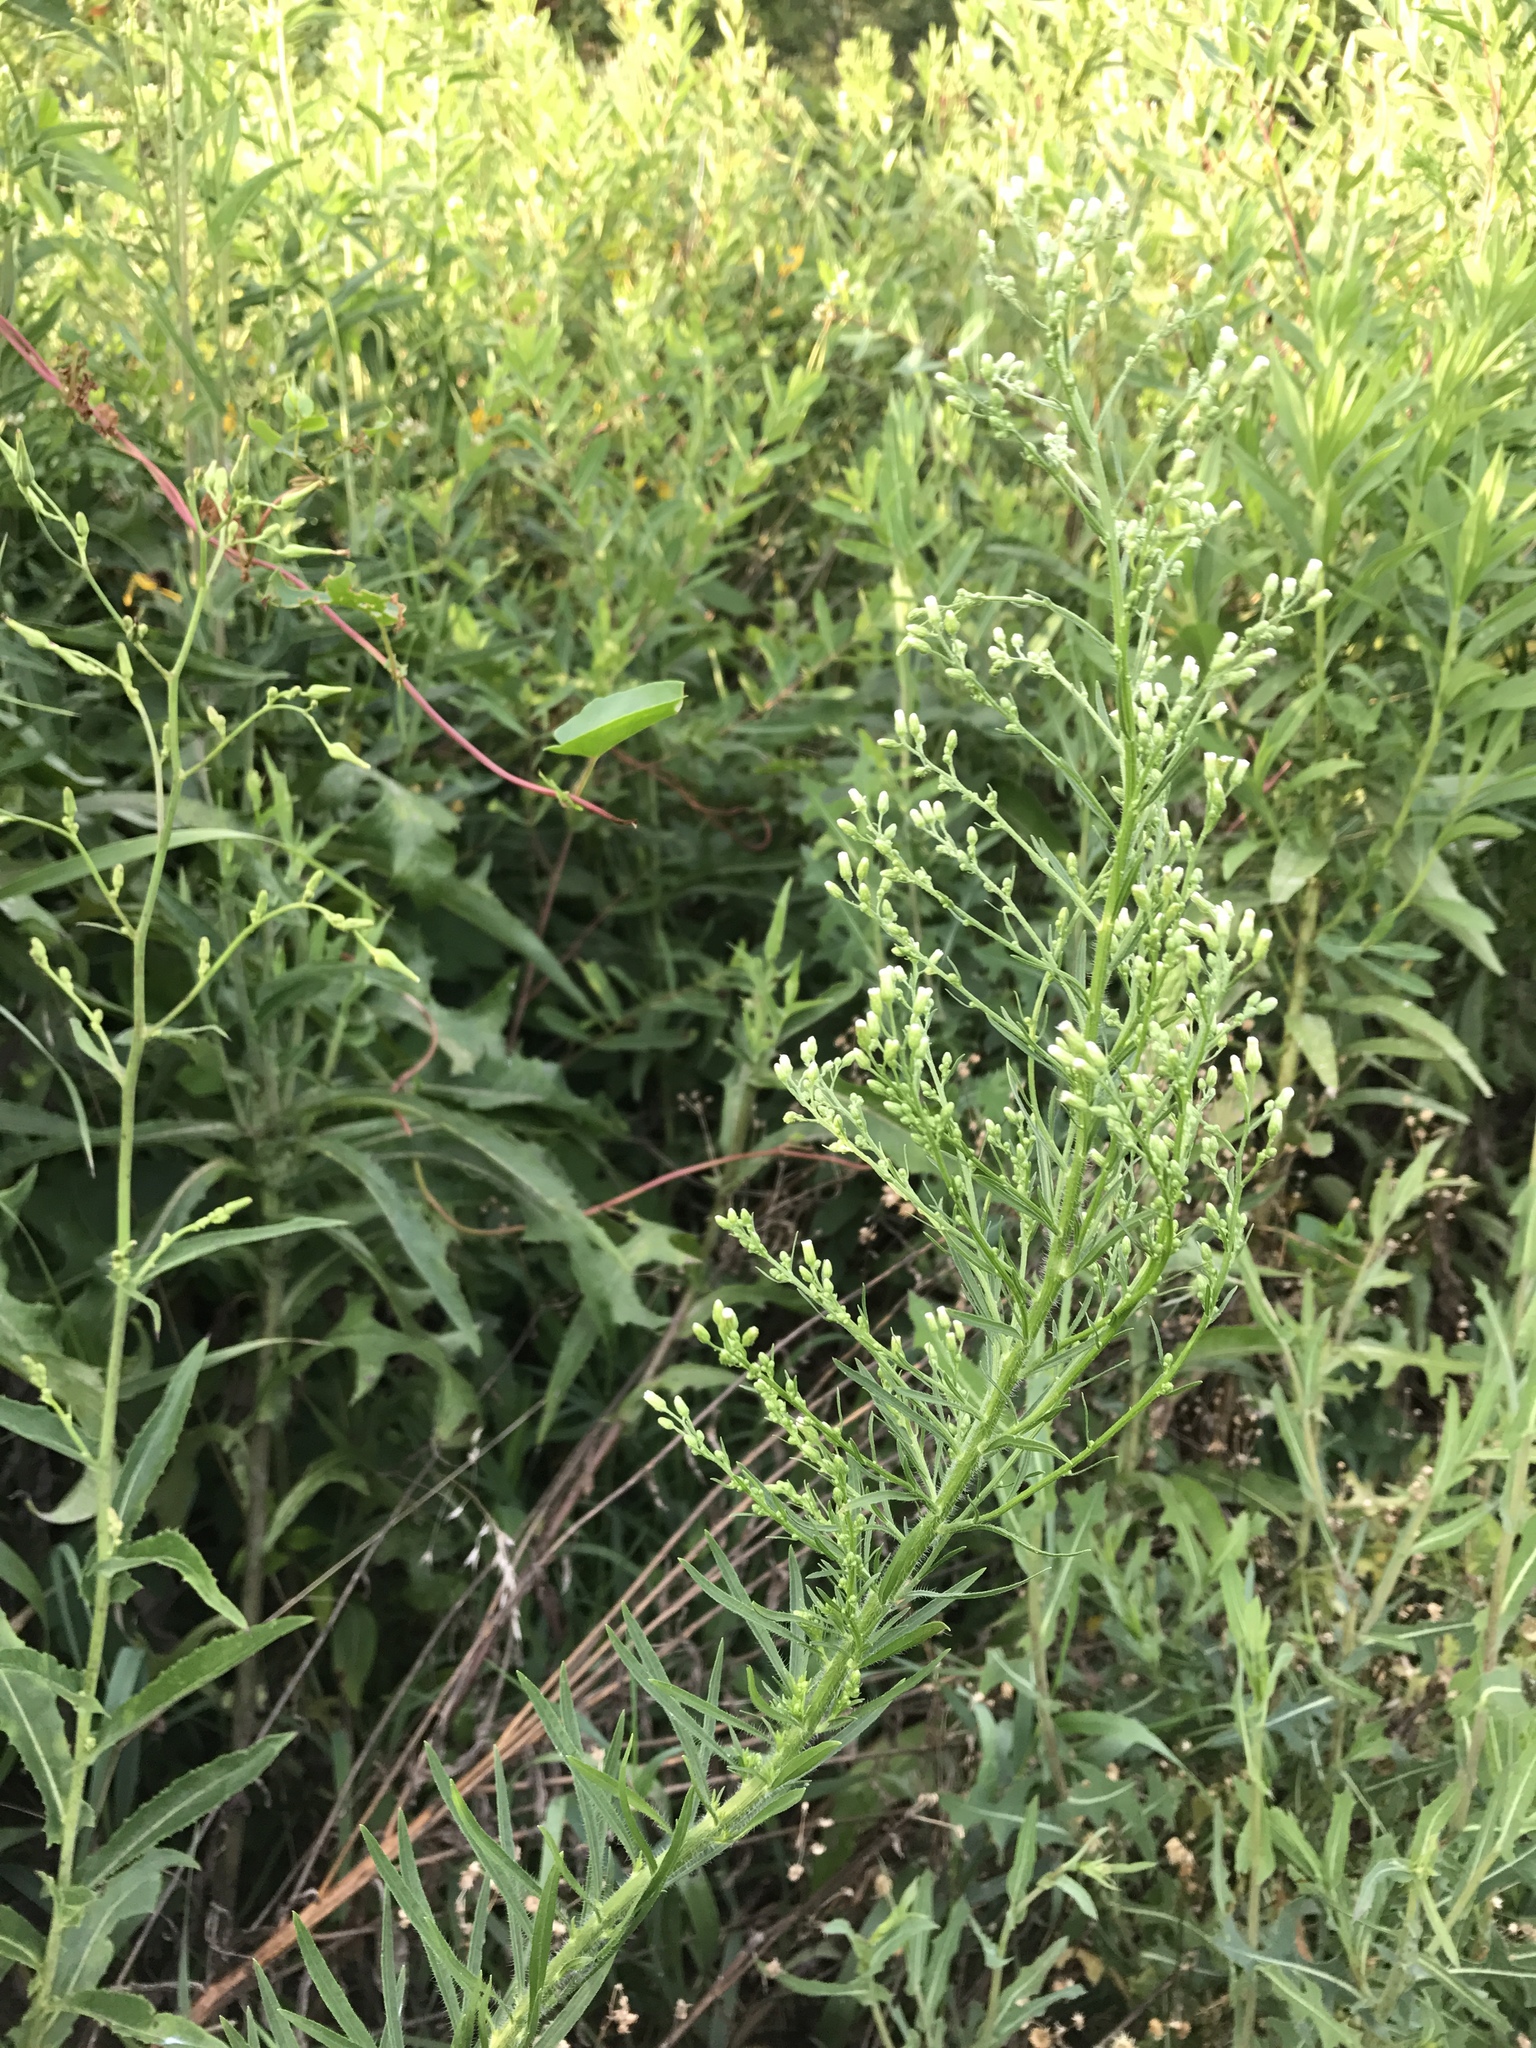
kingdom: Plantae
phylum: Tracheophyta
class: Magnoliopsida
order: Asterales
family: Asteraceae
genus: Erigeron
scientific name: Erigeron canadensis
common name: Canadian fleabane
